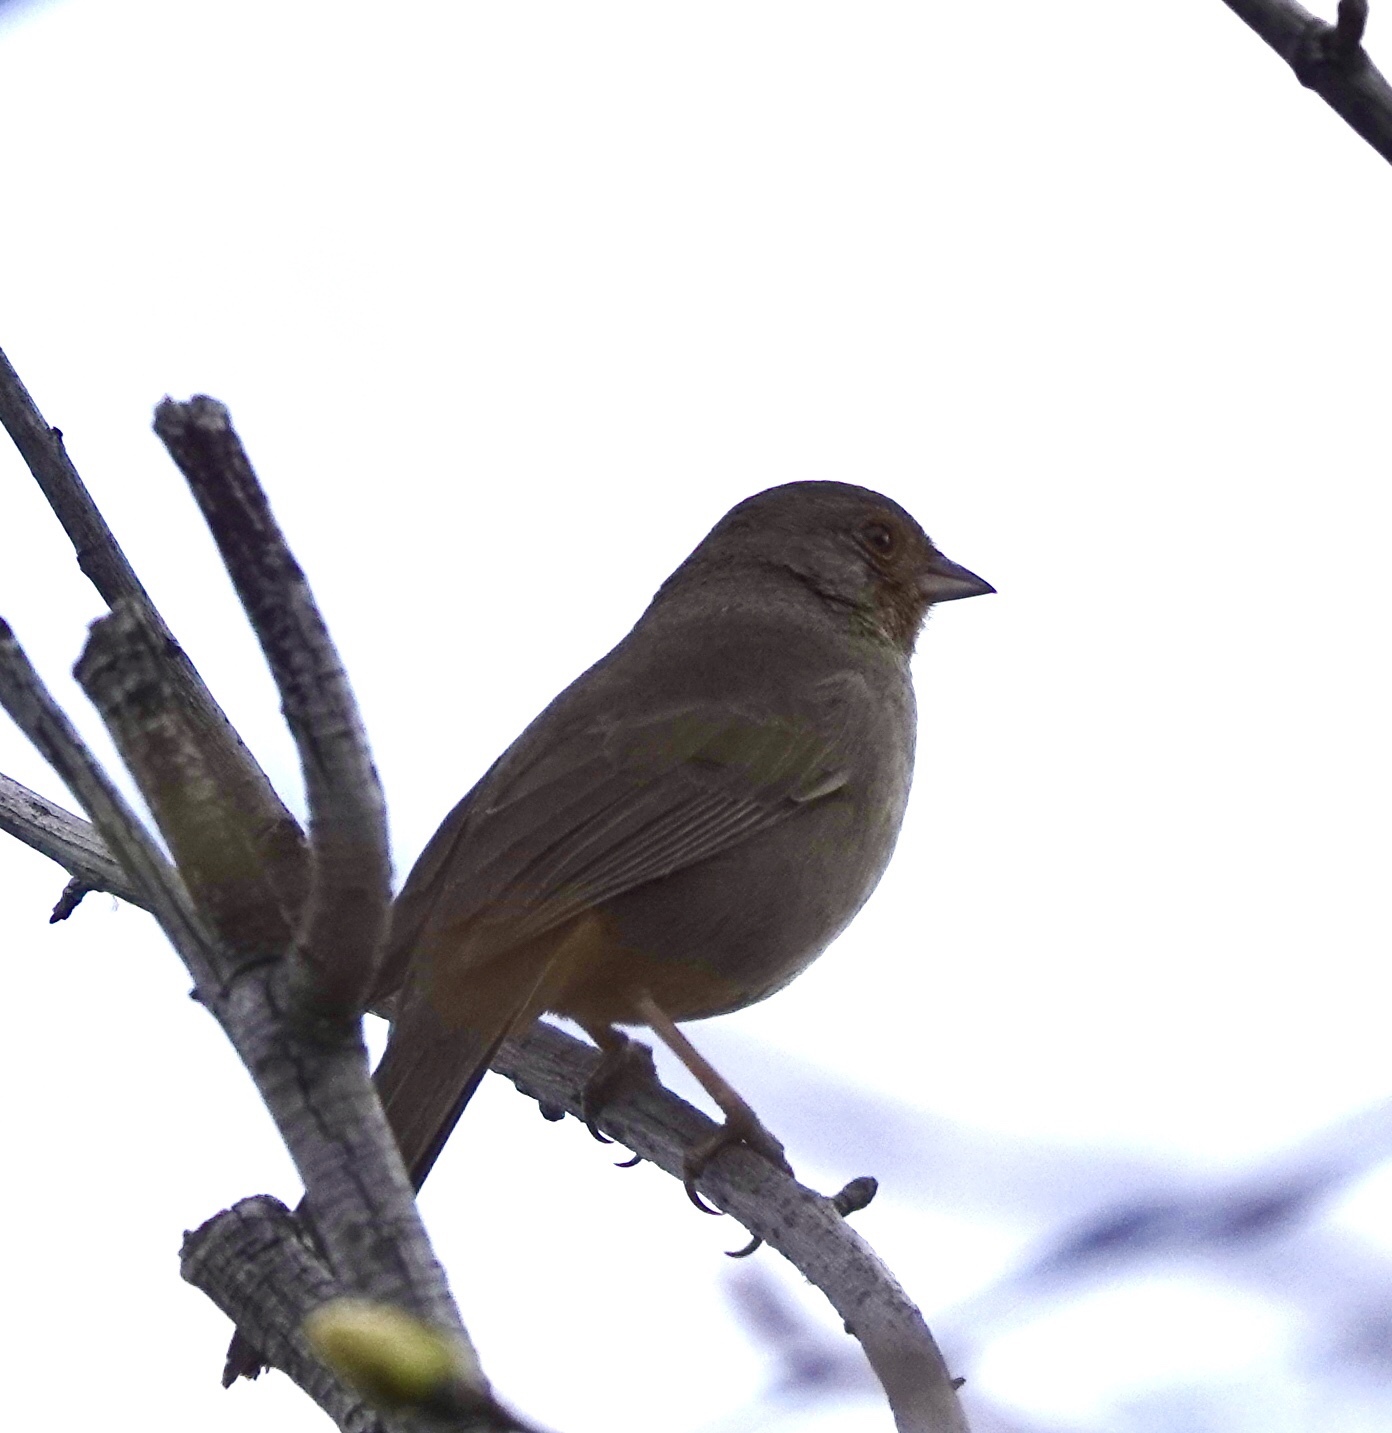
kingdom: Animalia
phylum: Chordata
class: Aves
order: Passeriformes
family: Passerellidae
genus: Melozone
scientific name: Melozone crissalis
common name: California towhee
